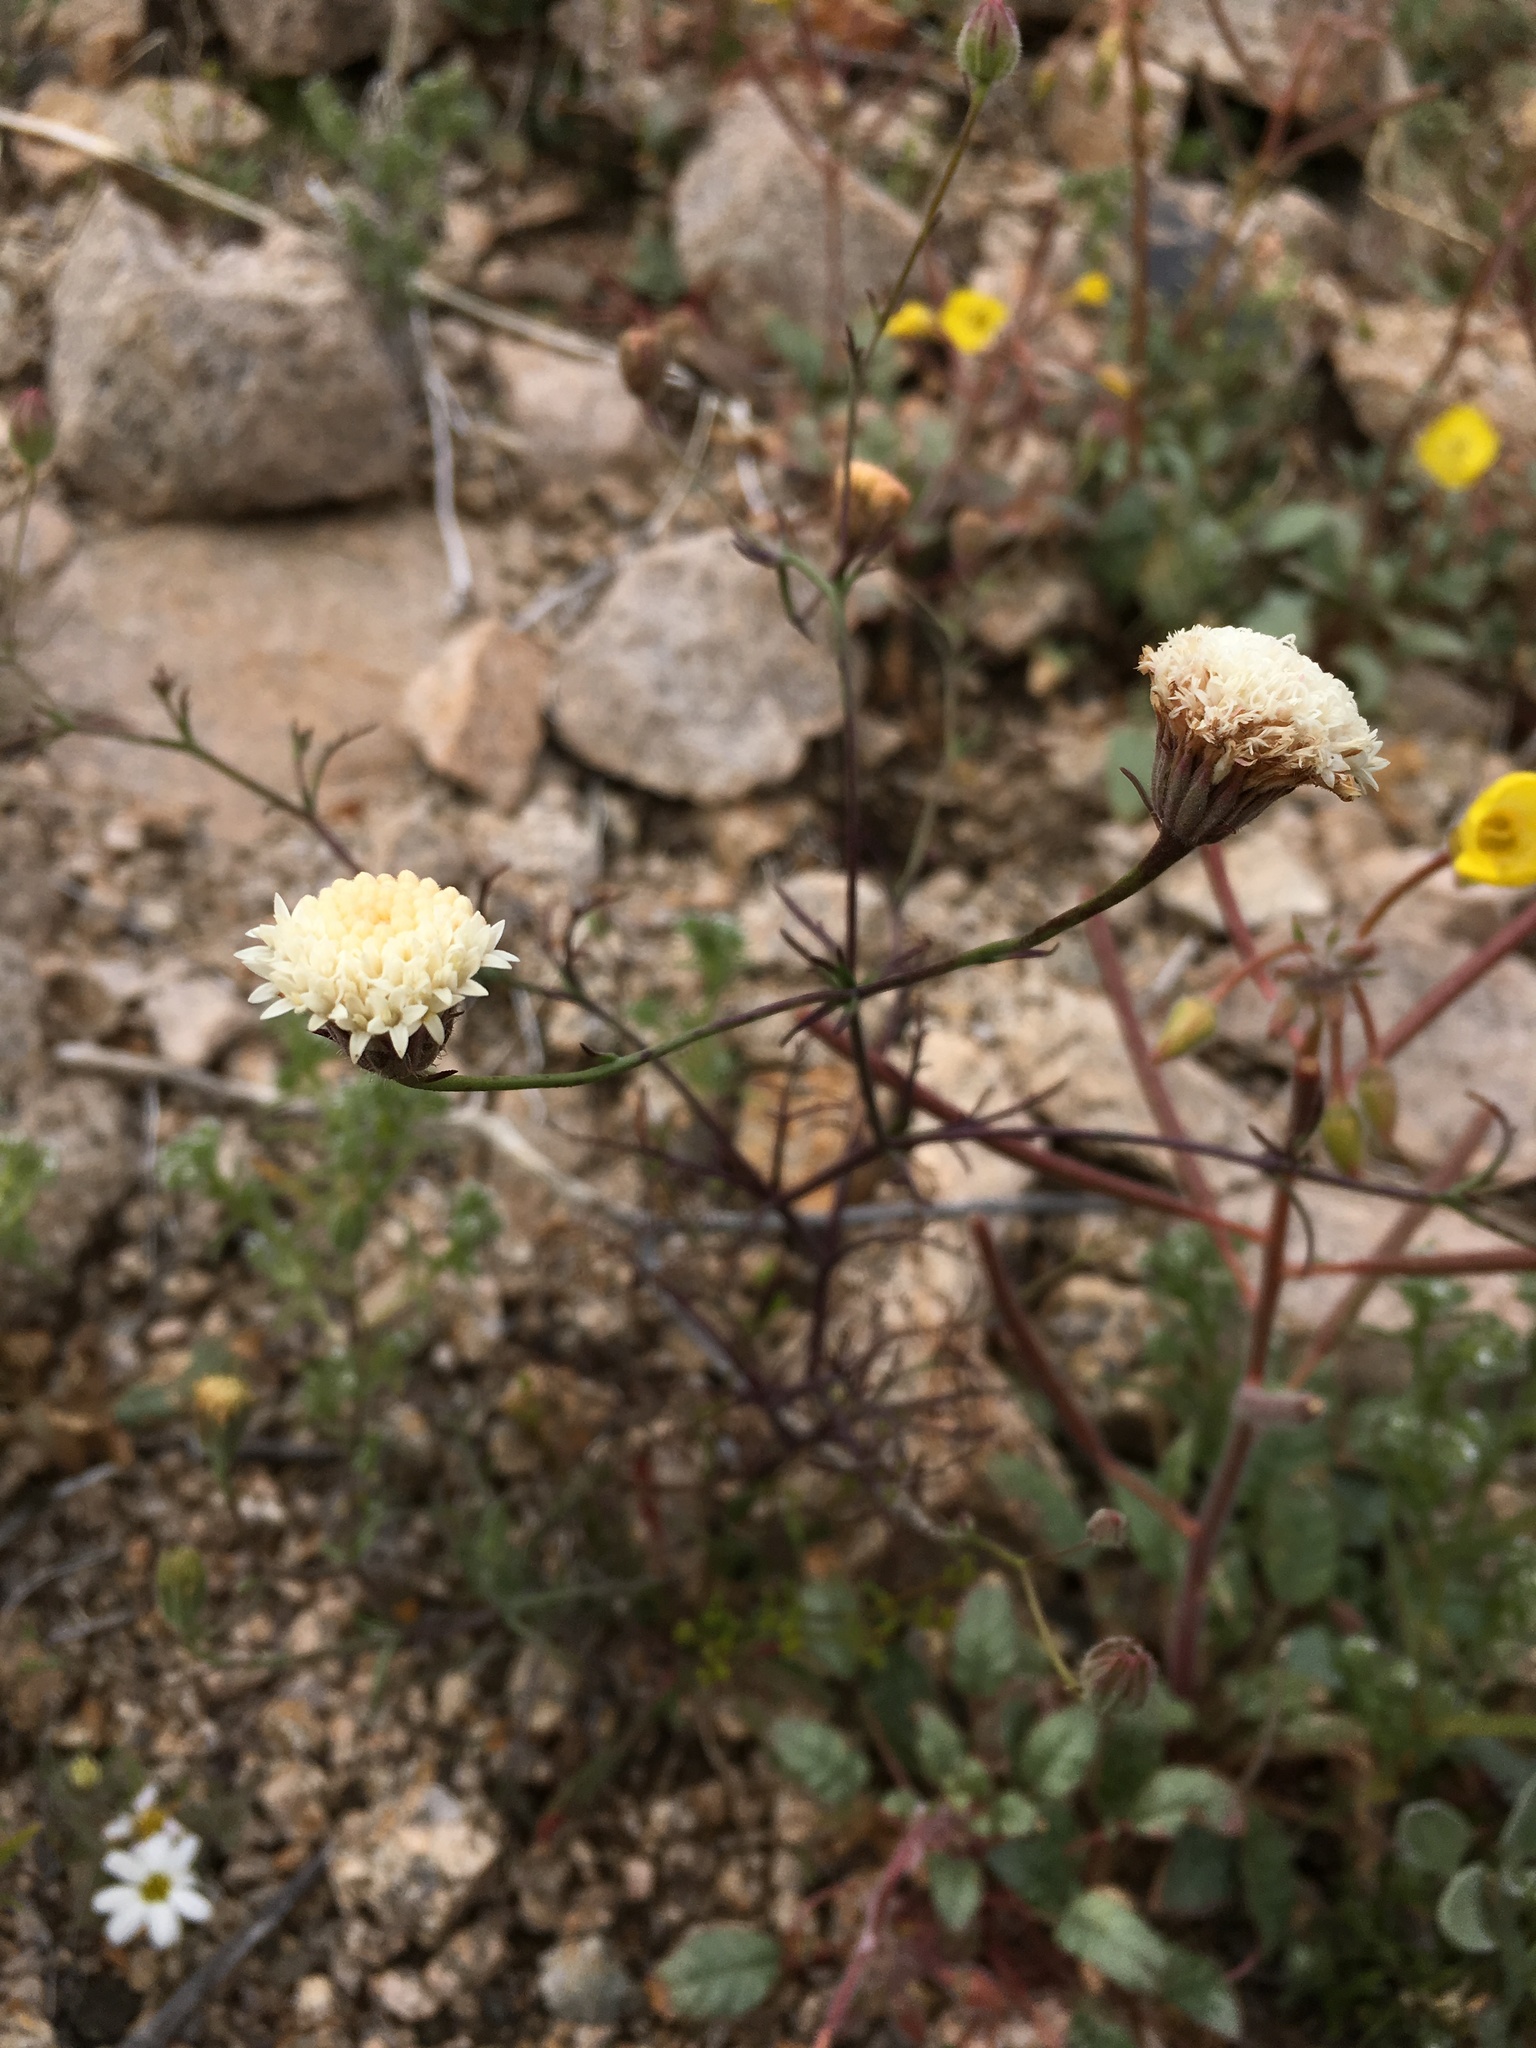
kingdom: Plantae
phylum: Tracheophyta
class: Magnoliopsida
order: Asterales
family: Asteraceae
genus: Chaenactis
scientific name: Chaenactis carphoclinia
